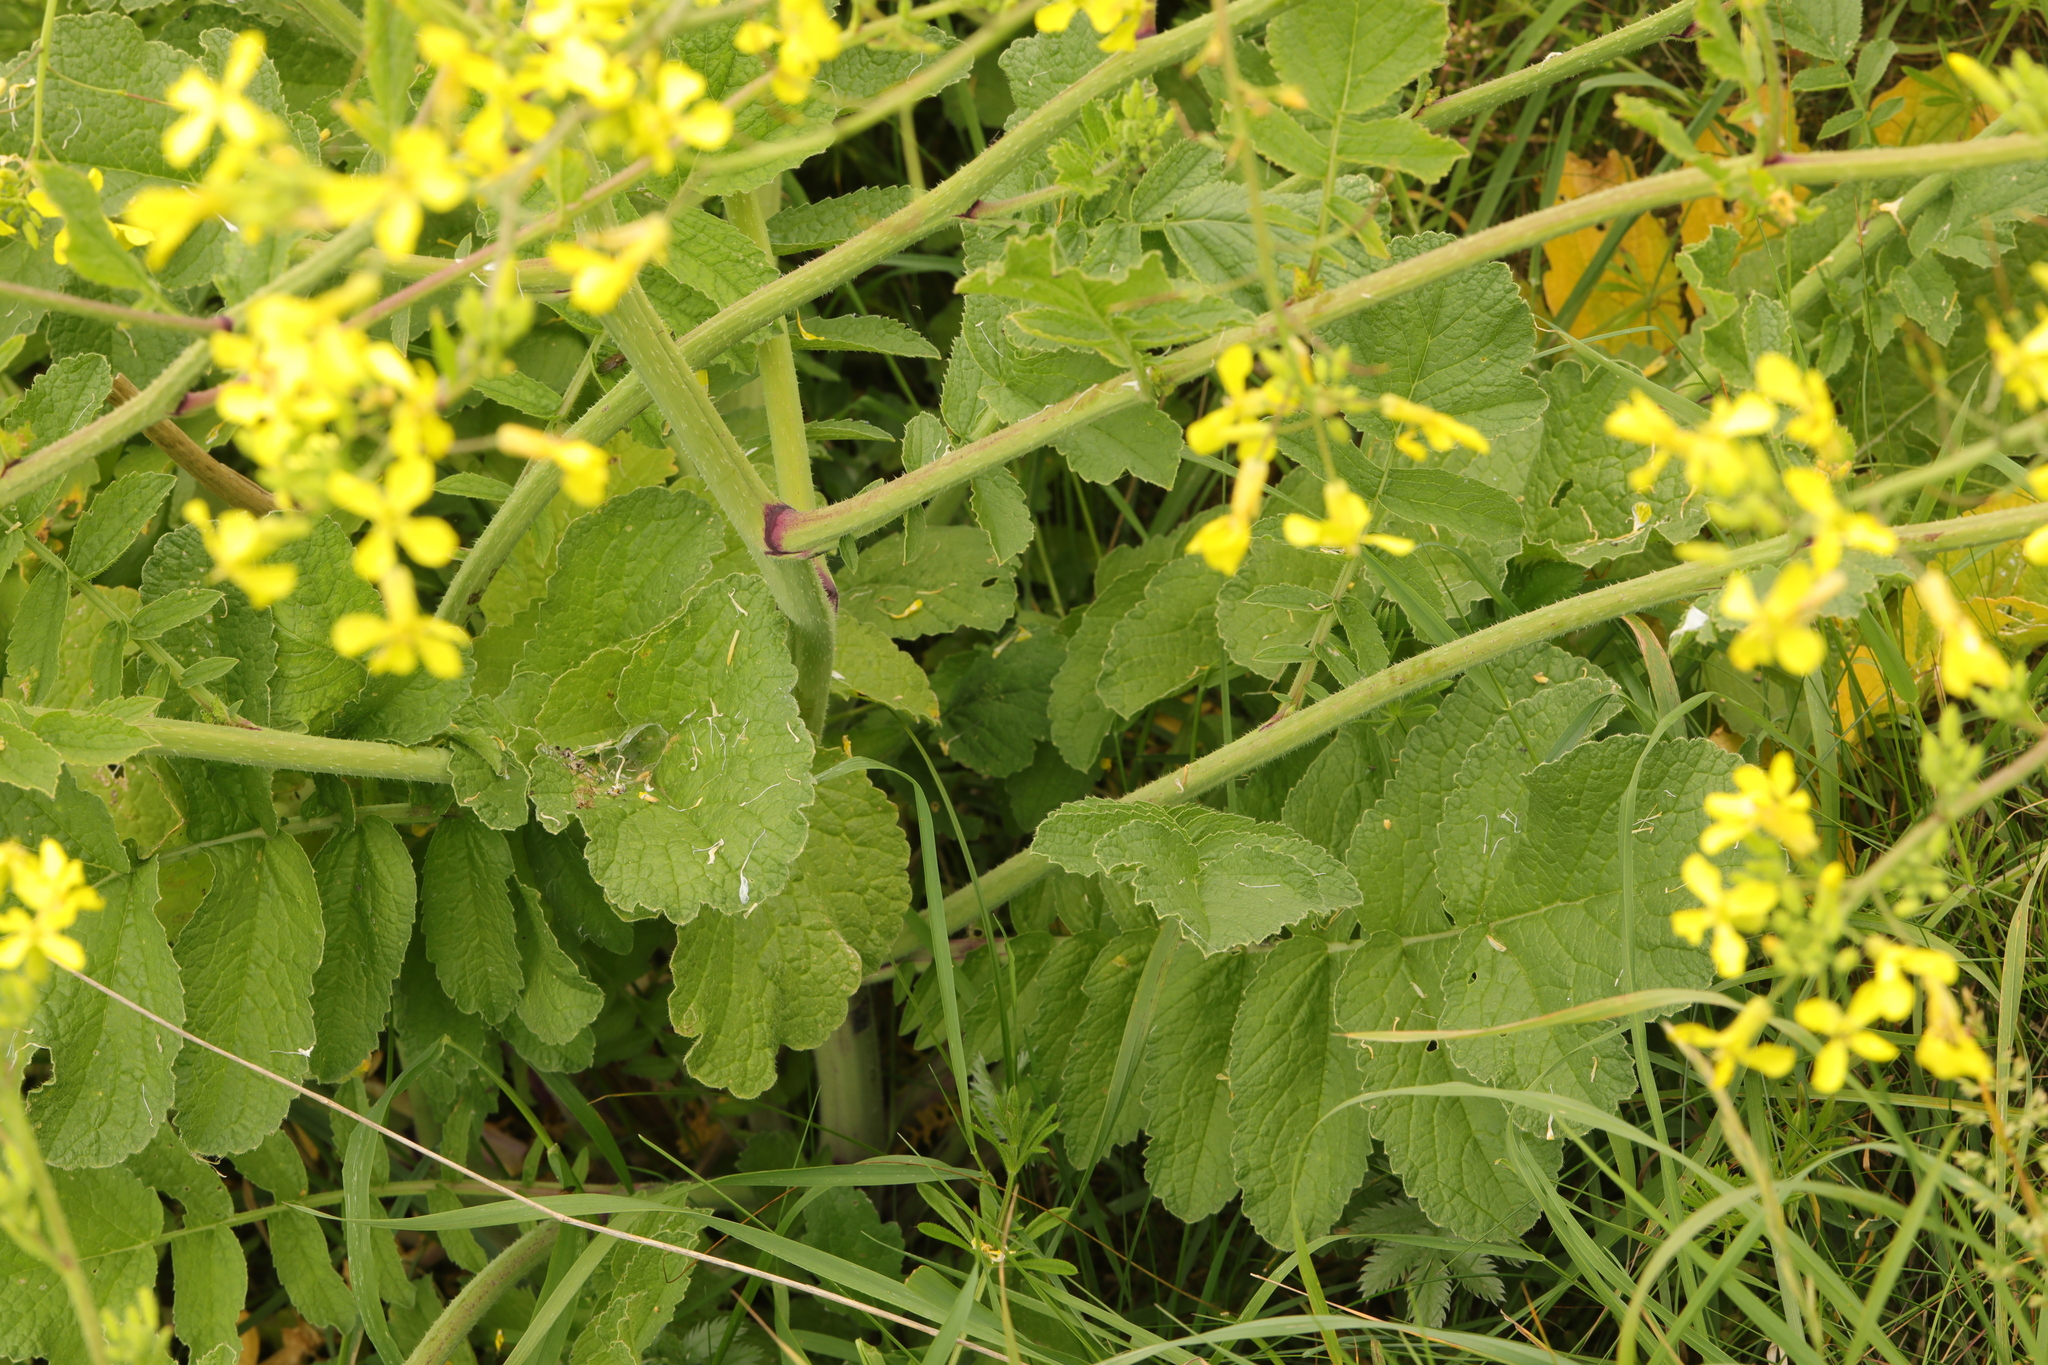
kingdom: Plantae
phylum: Tracheophyta
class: Magnoliopsida
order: Brassicales
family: Brassicaceae
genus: Raphanus
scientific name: Raphanus raphanistrum
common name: Wild radish
